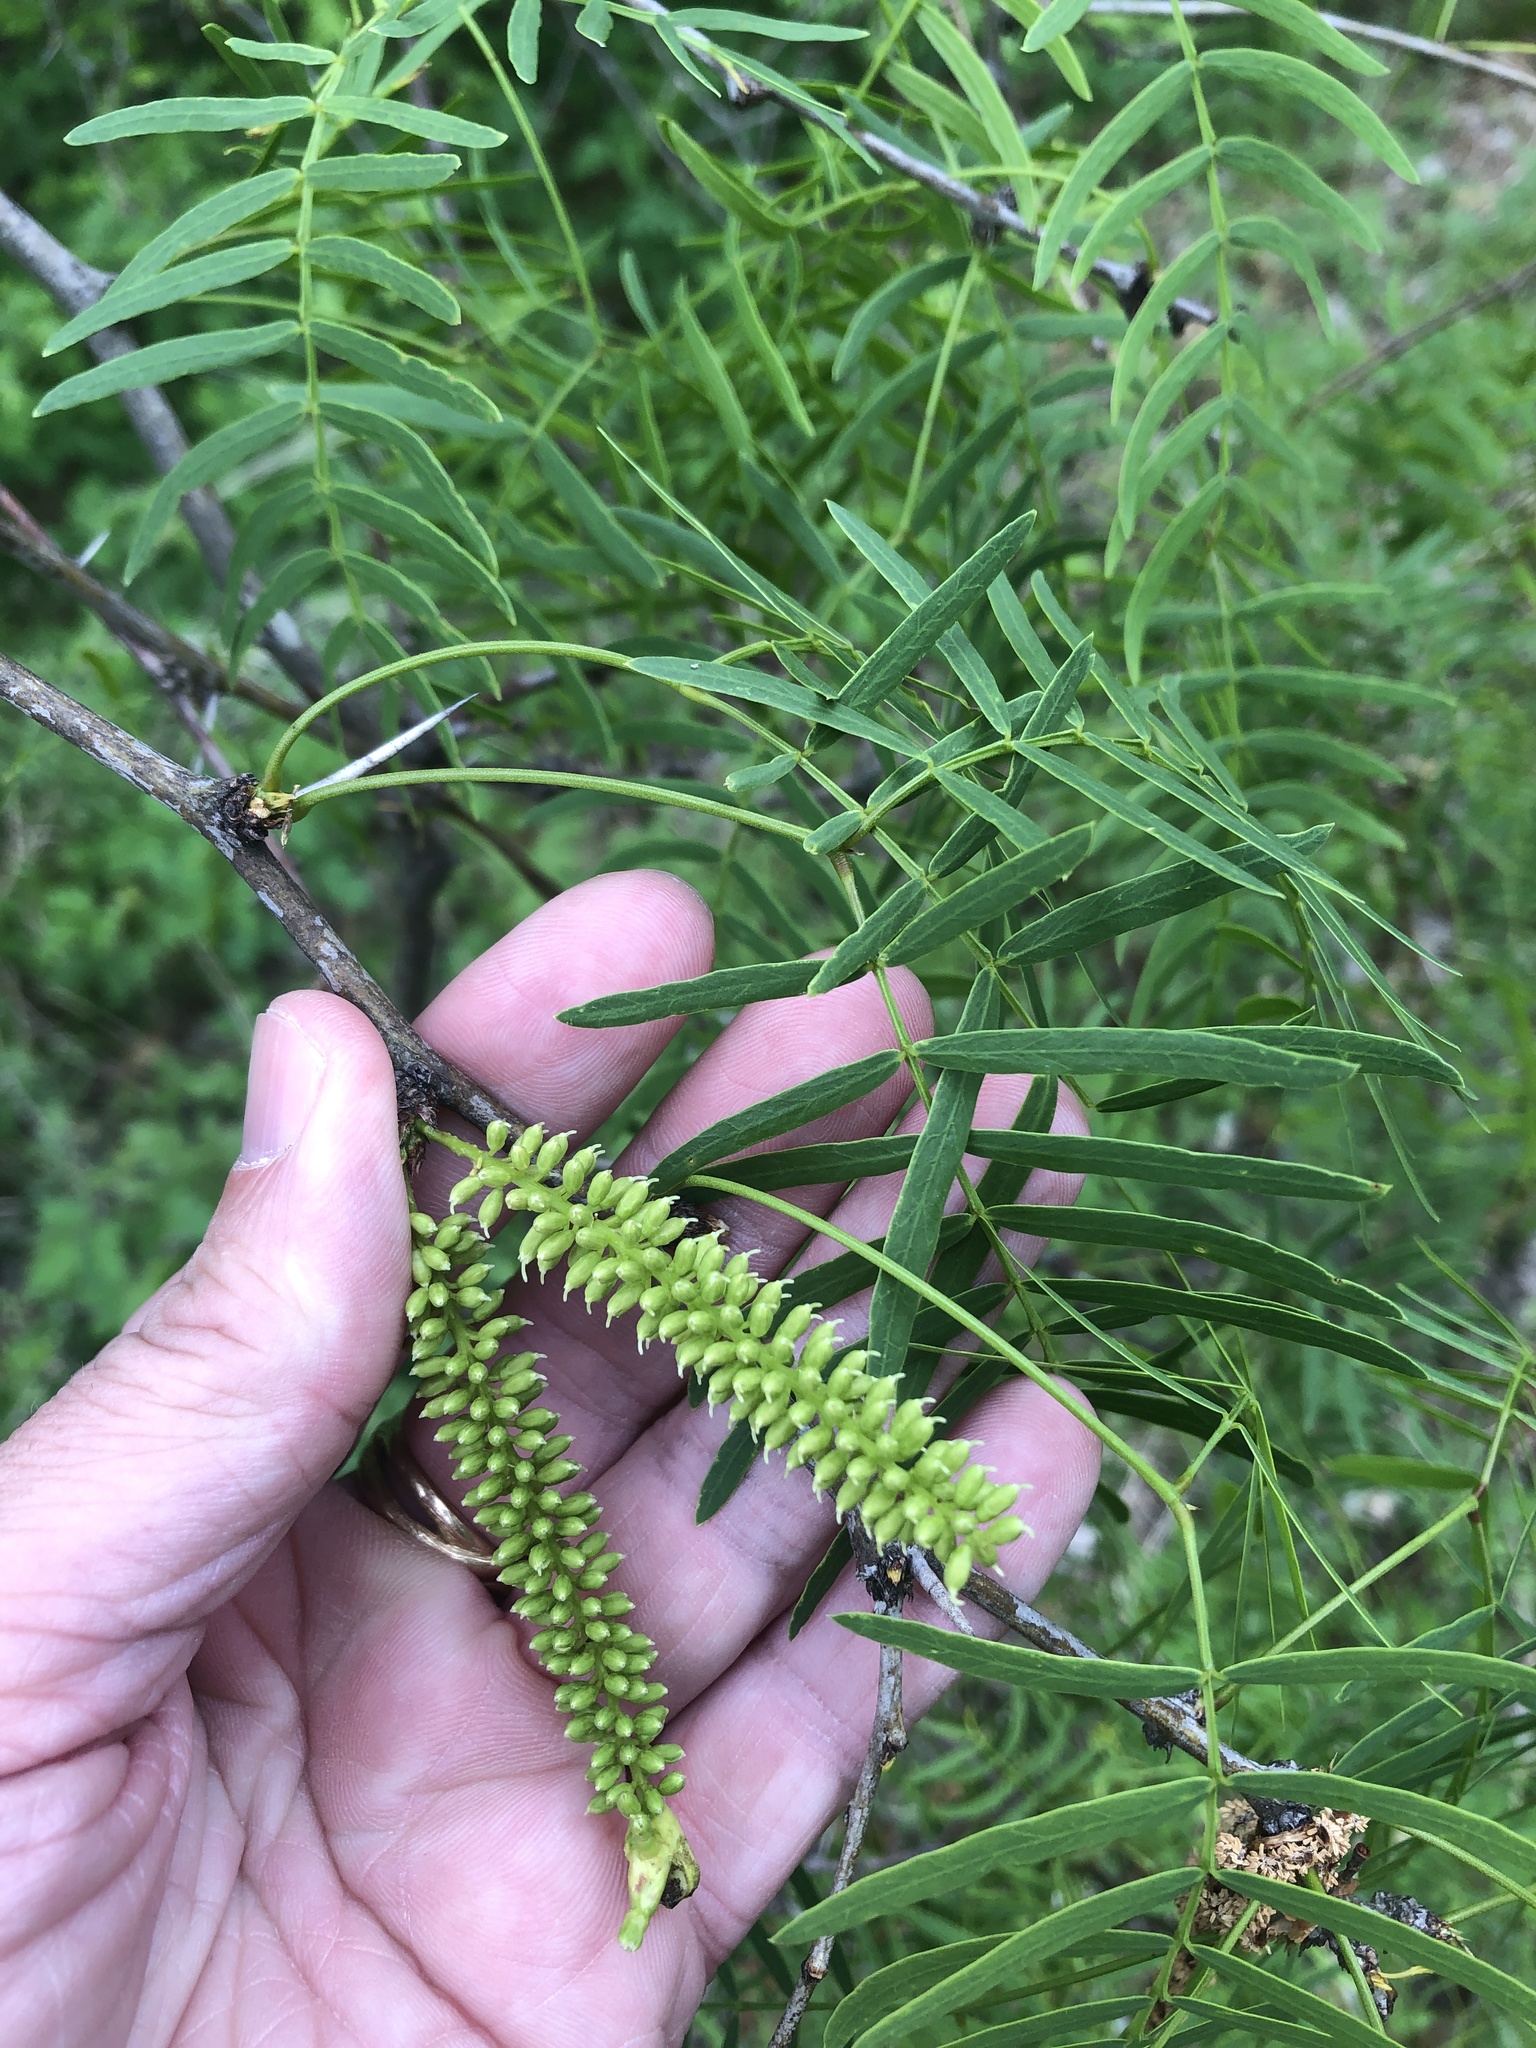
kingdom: Plantae
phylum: Tracheophyta
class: Magnoliopsida
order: Fabales
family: Fabaceae
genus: Prosopis
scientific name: Prosopis glandulosa
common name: Honey mesquite
